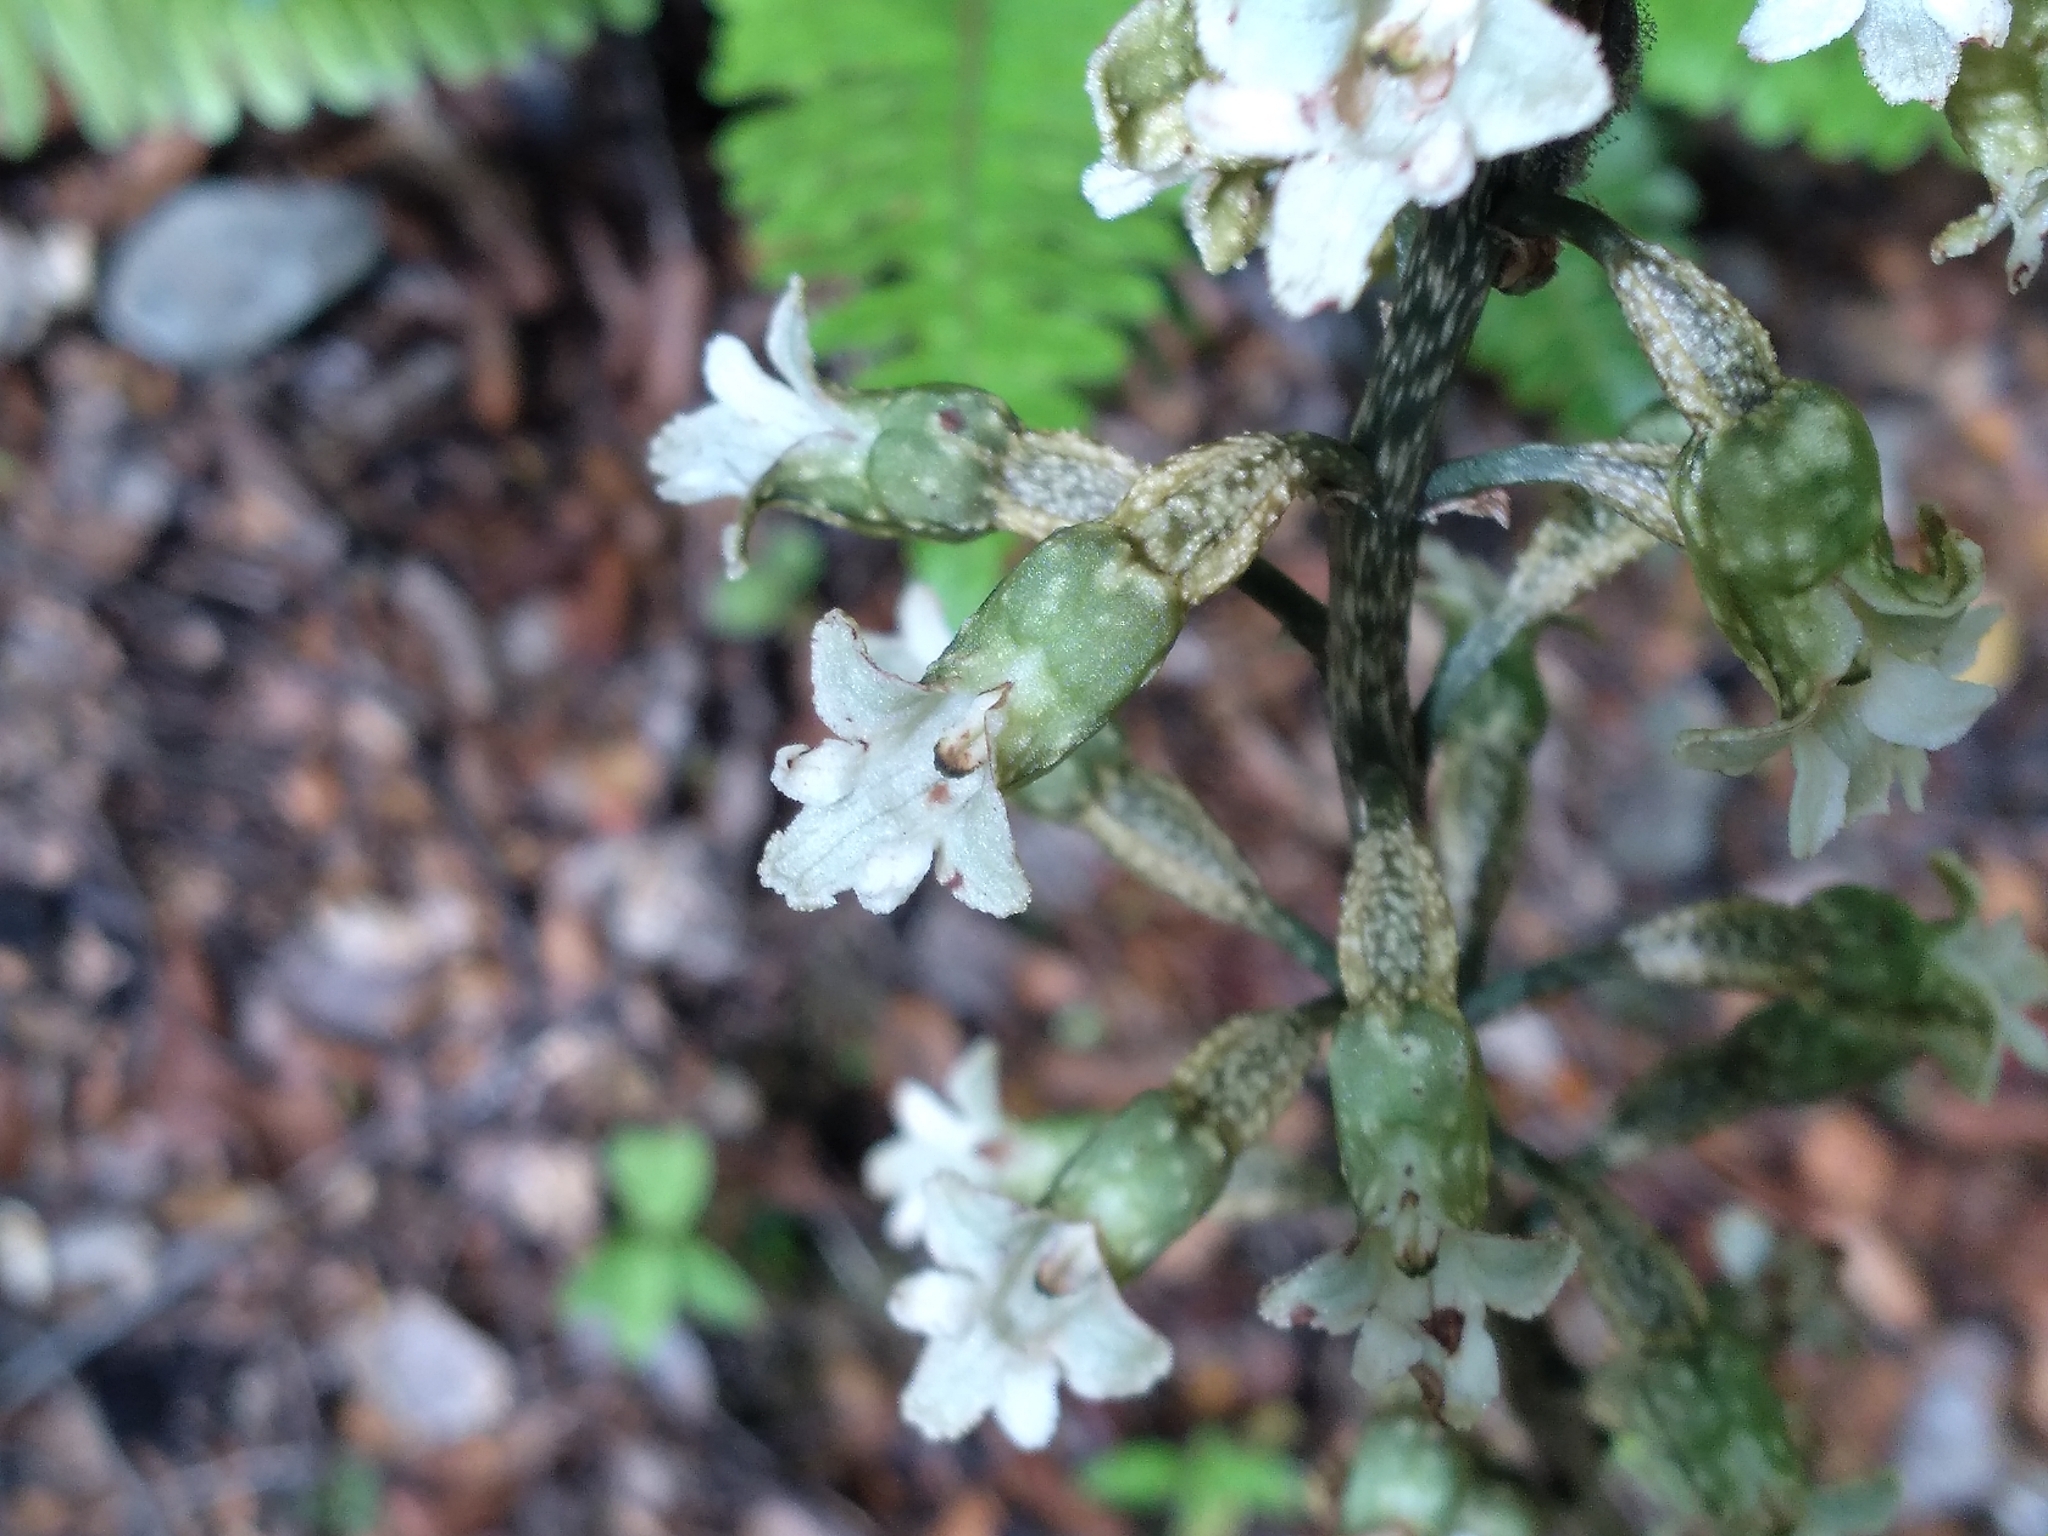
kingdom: Plantae
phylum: Tracheophyta
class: Liliopsida
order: Asparagales
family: Orchidaceae
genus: Gastrodia
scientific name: Gastrodia cunninghamii
